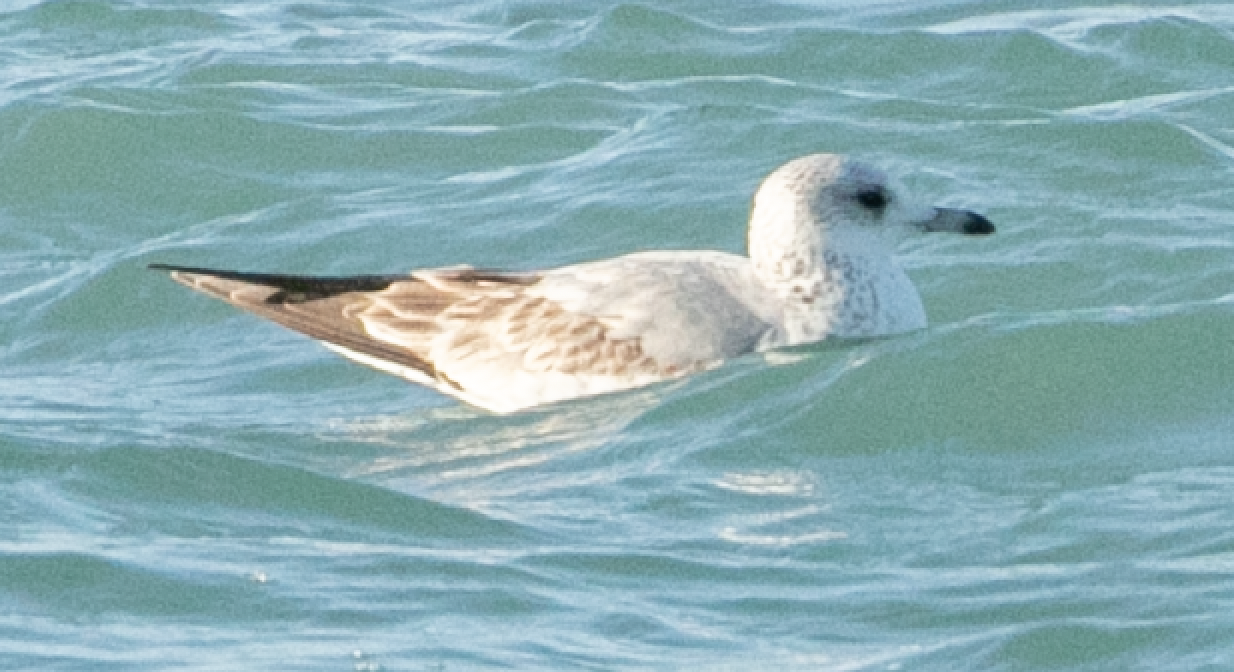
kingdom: Animalia
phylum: Chordata
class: Aves
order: Charadriiformes
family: Laridae
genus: Larus
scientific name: Larus canus
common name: Mew gull
